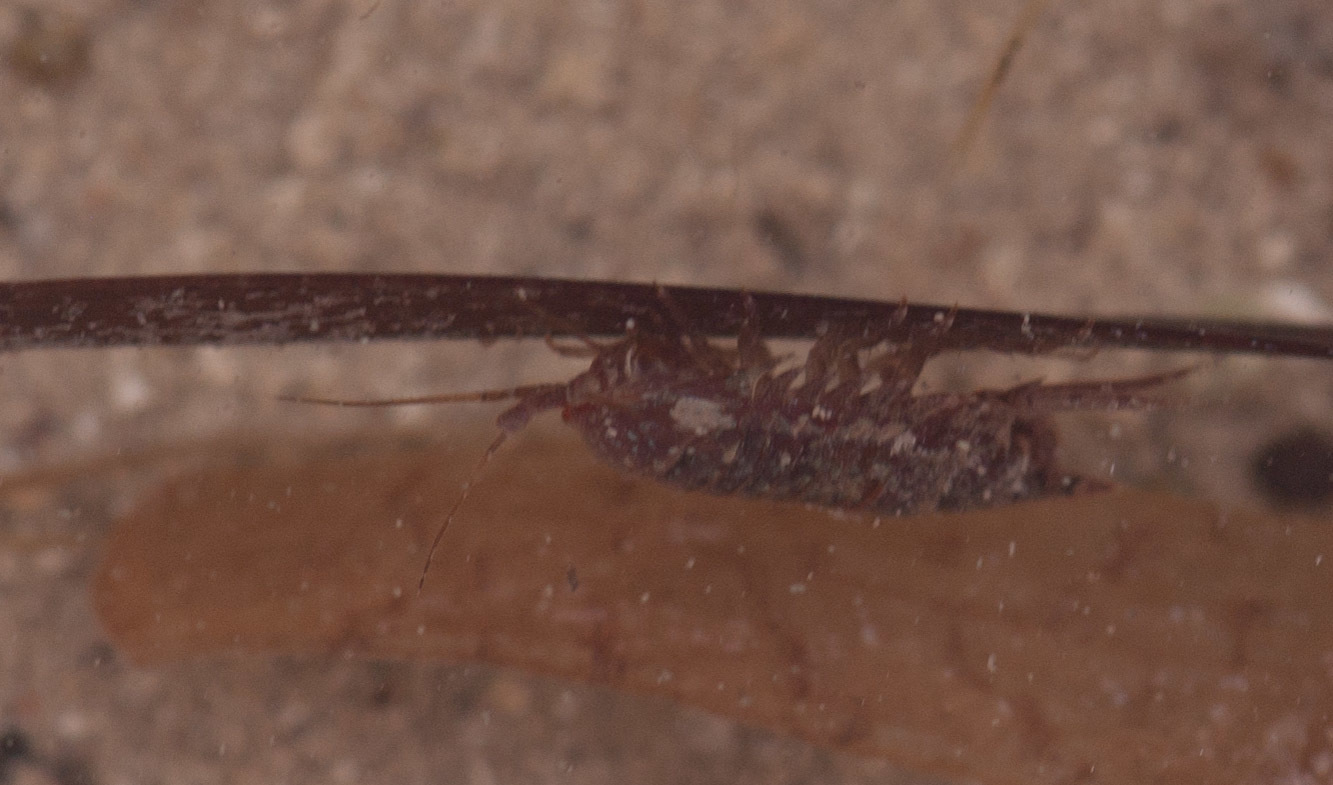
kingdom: Animalia
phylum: Arthropoda
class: Malacostraca
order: Isopoda
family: Sphaeromatidae
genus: Platynympha
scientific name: Platynympha longicaudata
